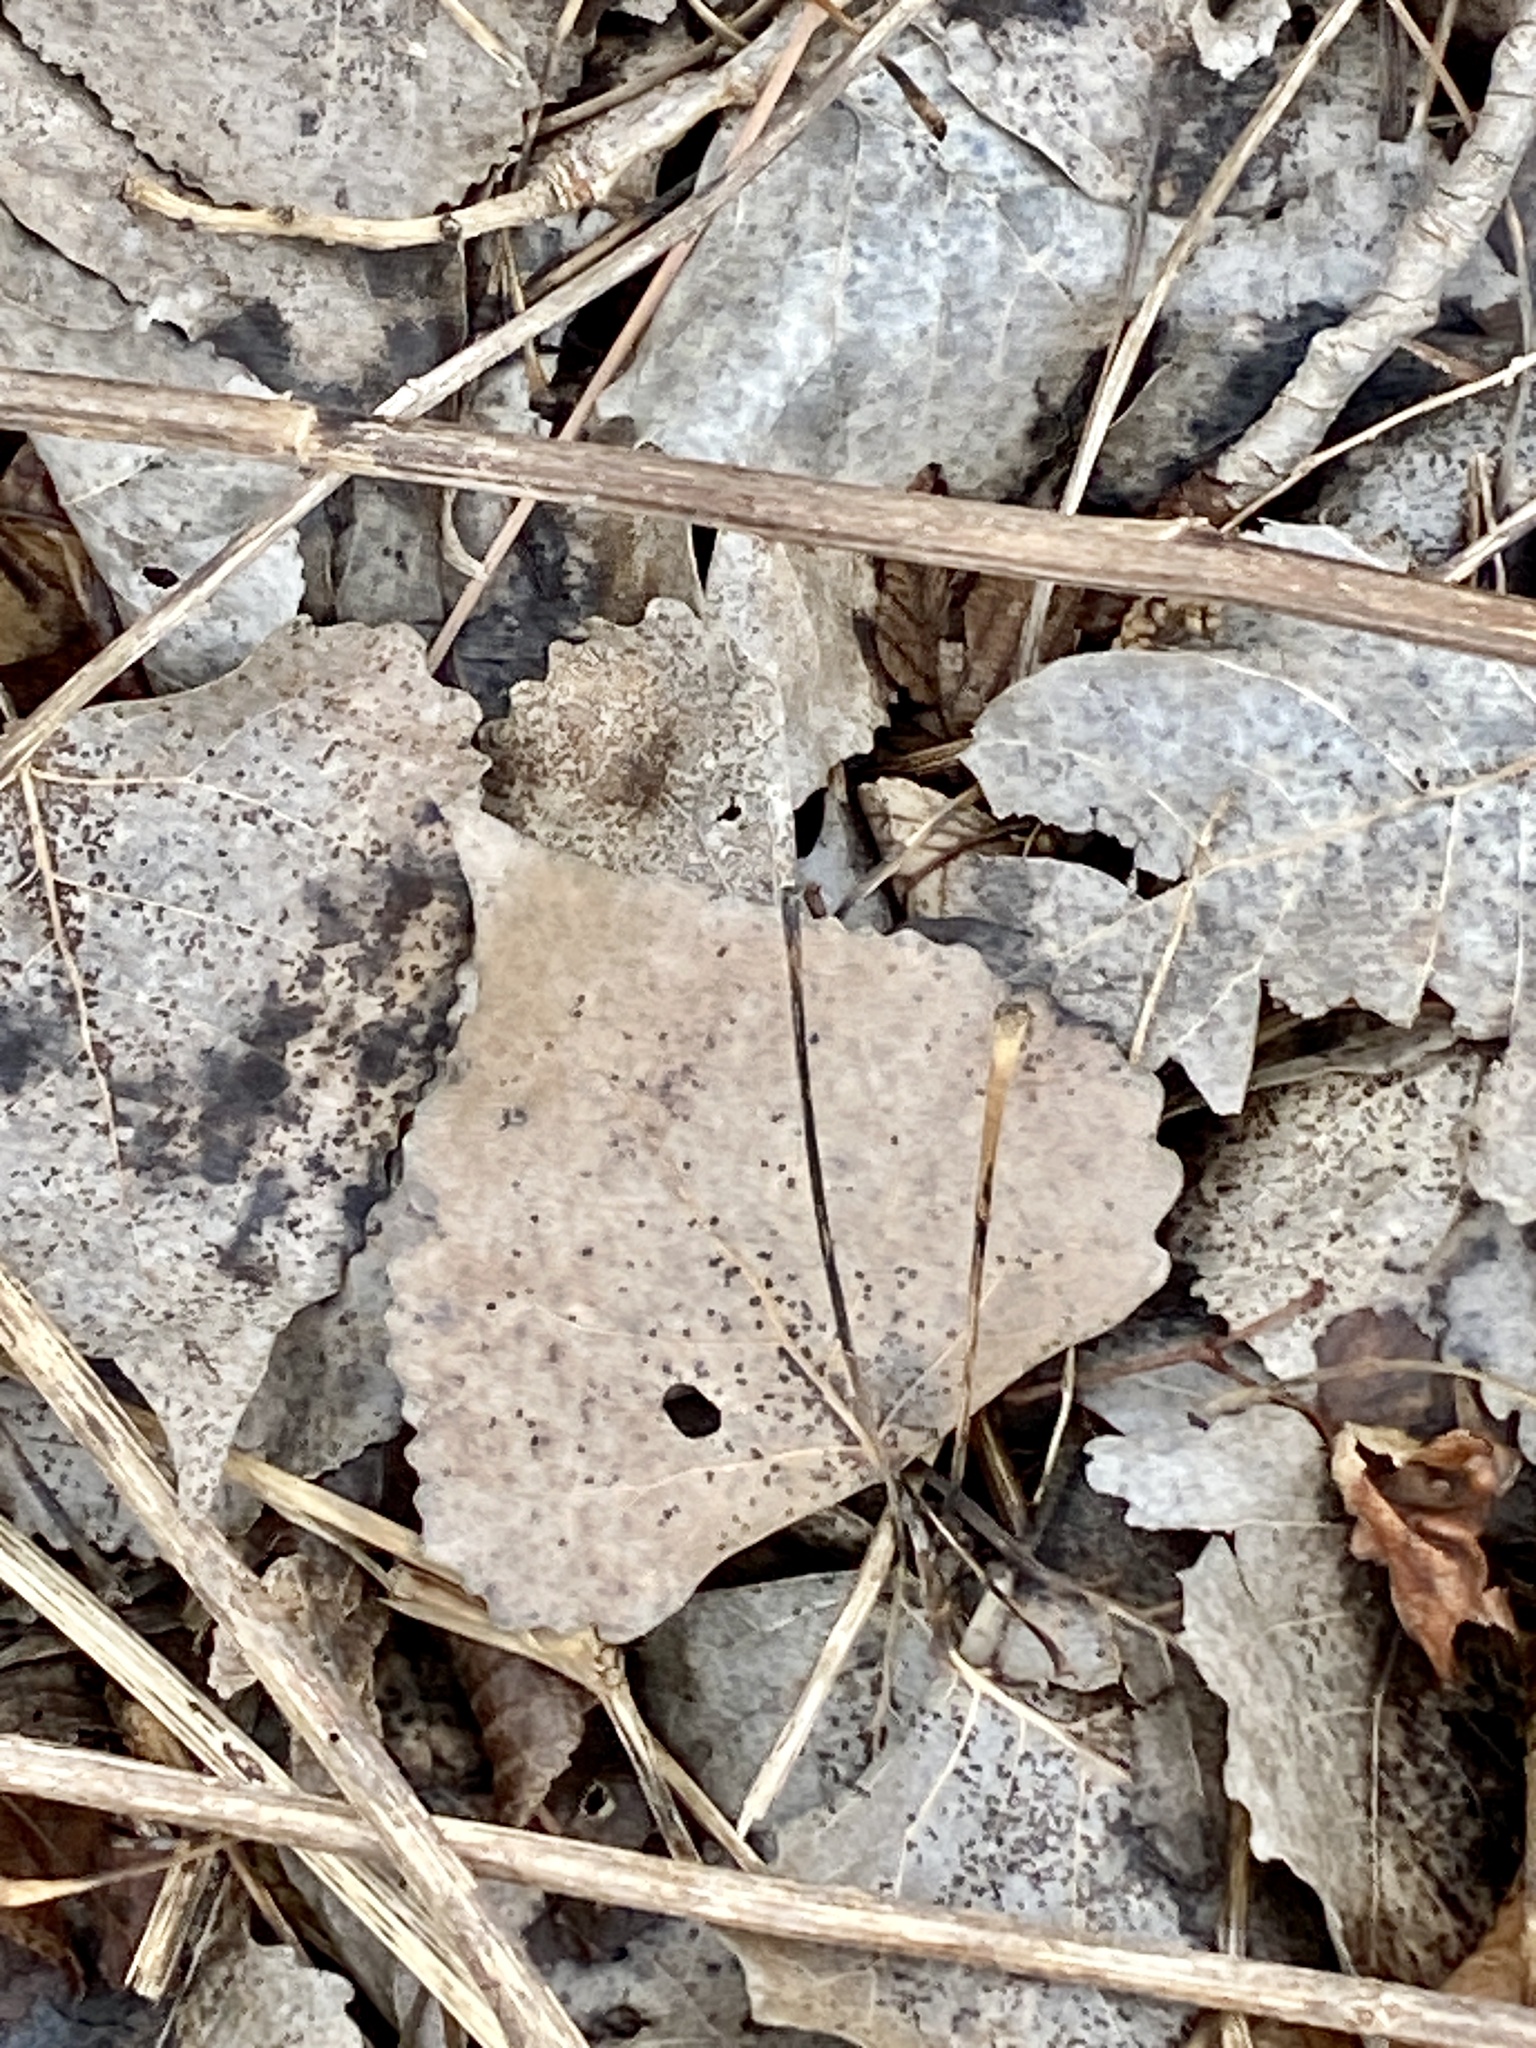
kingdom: Plantae
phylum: Tracheophyta
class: Magnoliopsida
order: Malpighiales
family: Salicaceae
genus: Populus
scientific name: Populus deltoides
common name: Eastern cottonwood
